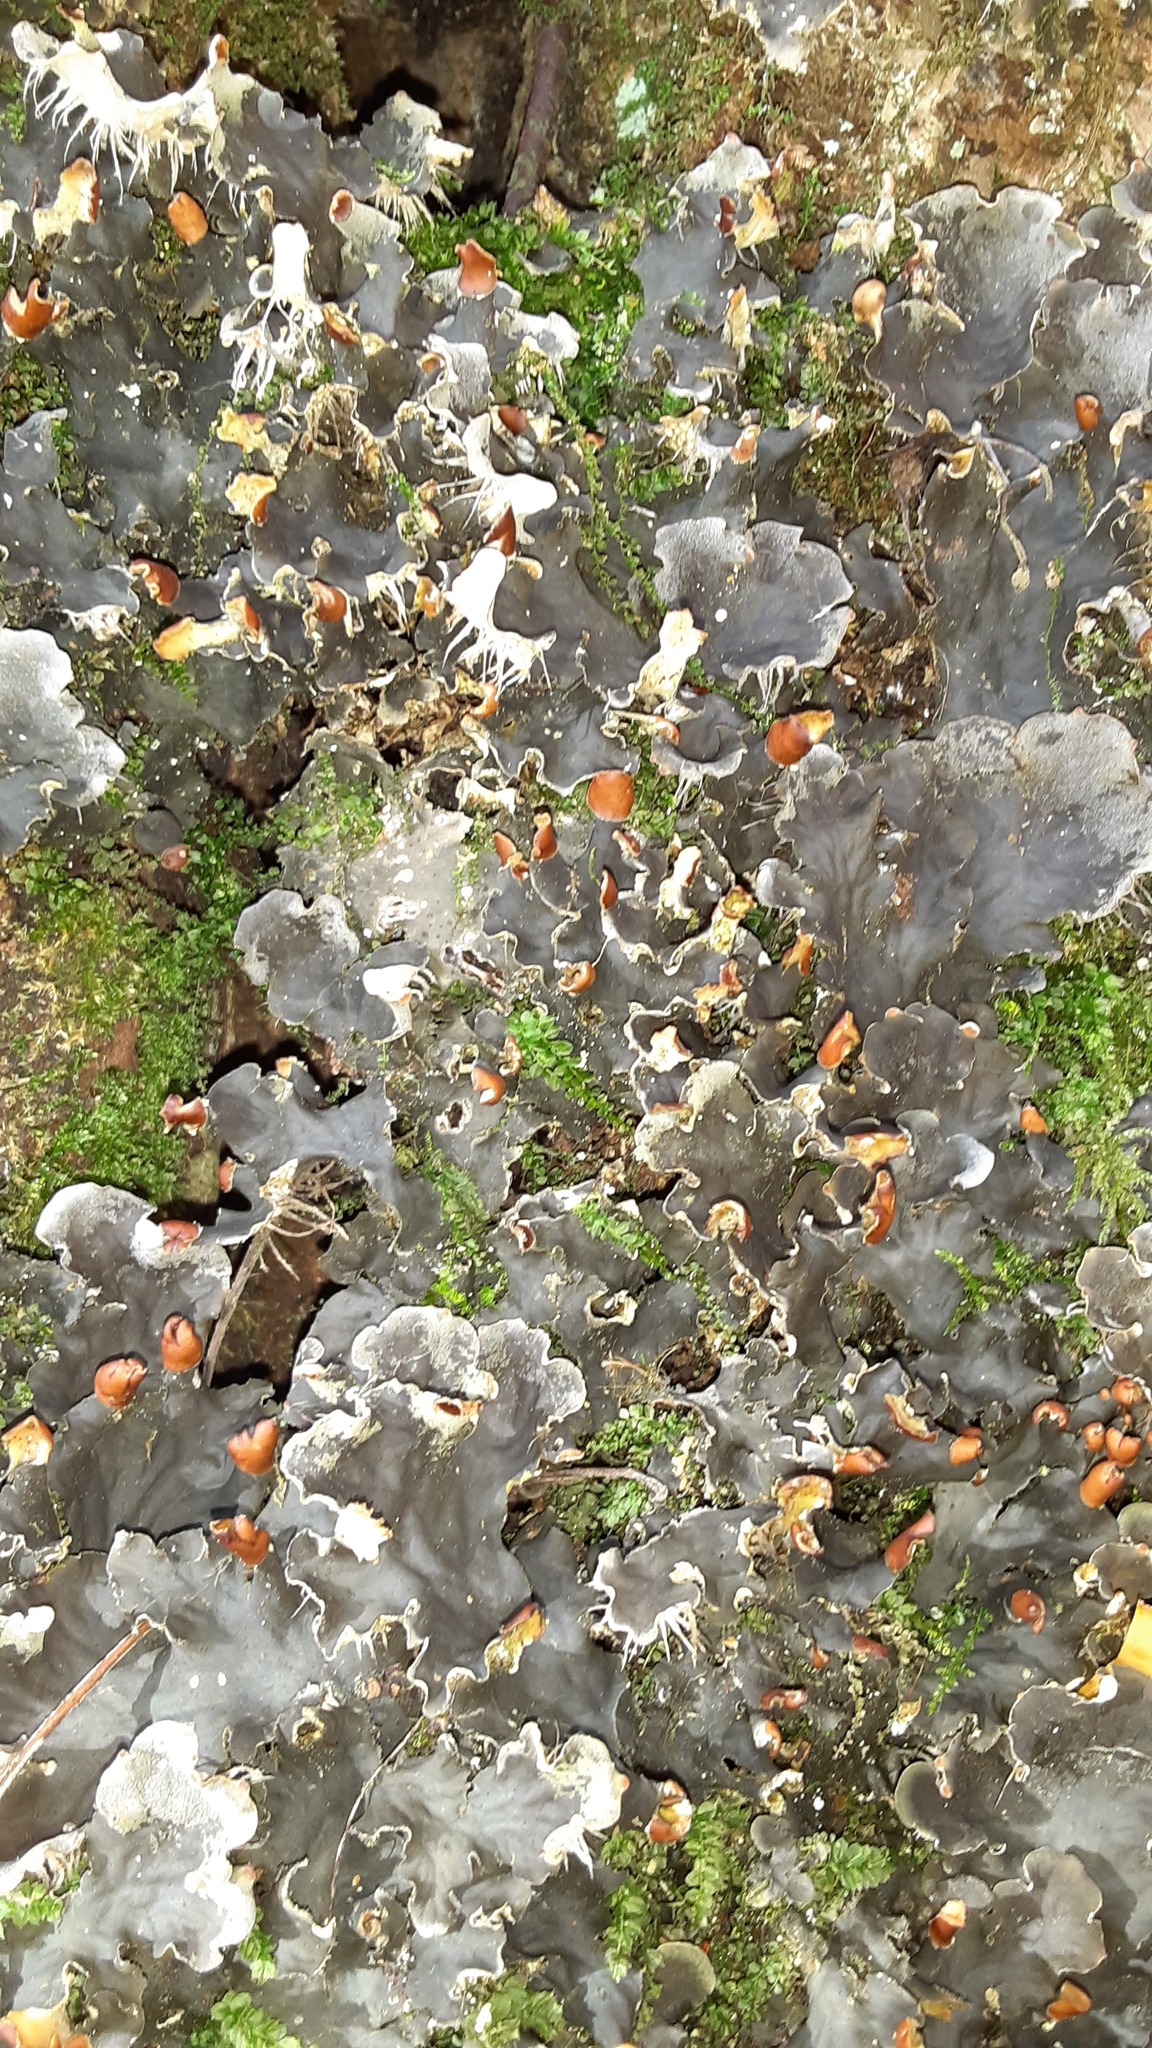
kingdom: Fungi
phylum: Ascomycota
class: Lecanoromycetes
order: Peltigerales
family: Peltigeraceae
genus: Peltigera
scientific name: Peltigera praetextata
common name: Scaly dog-lichen
